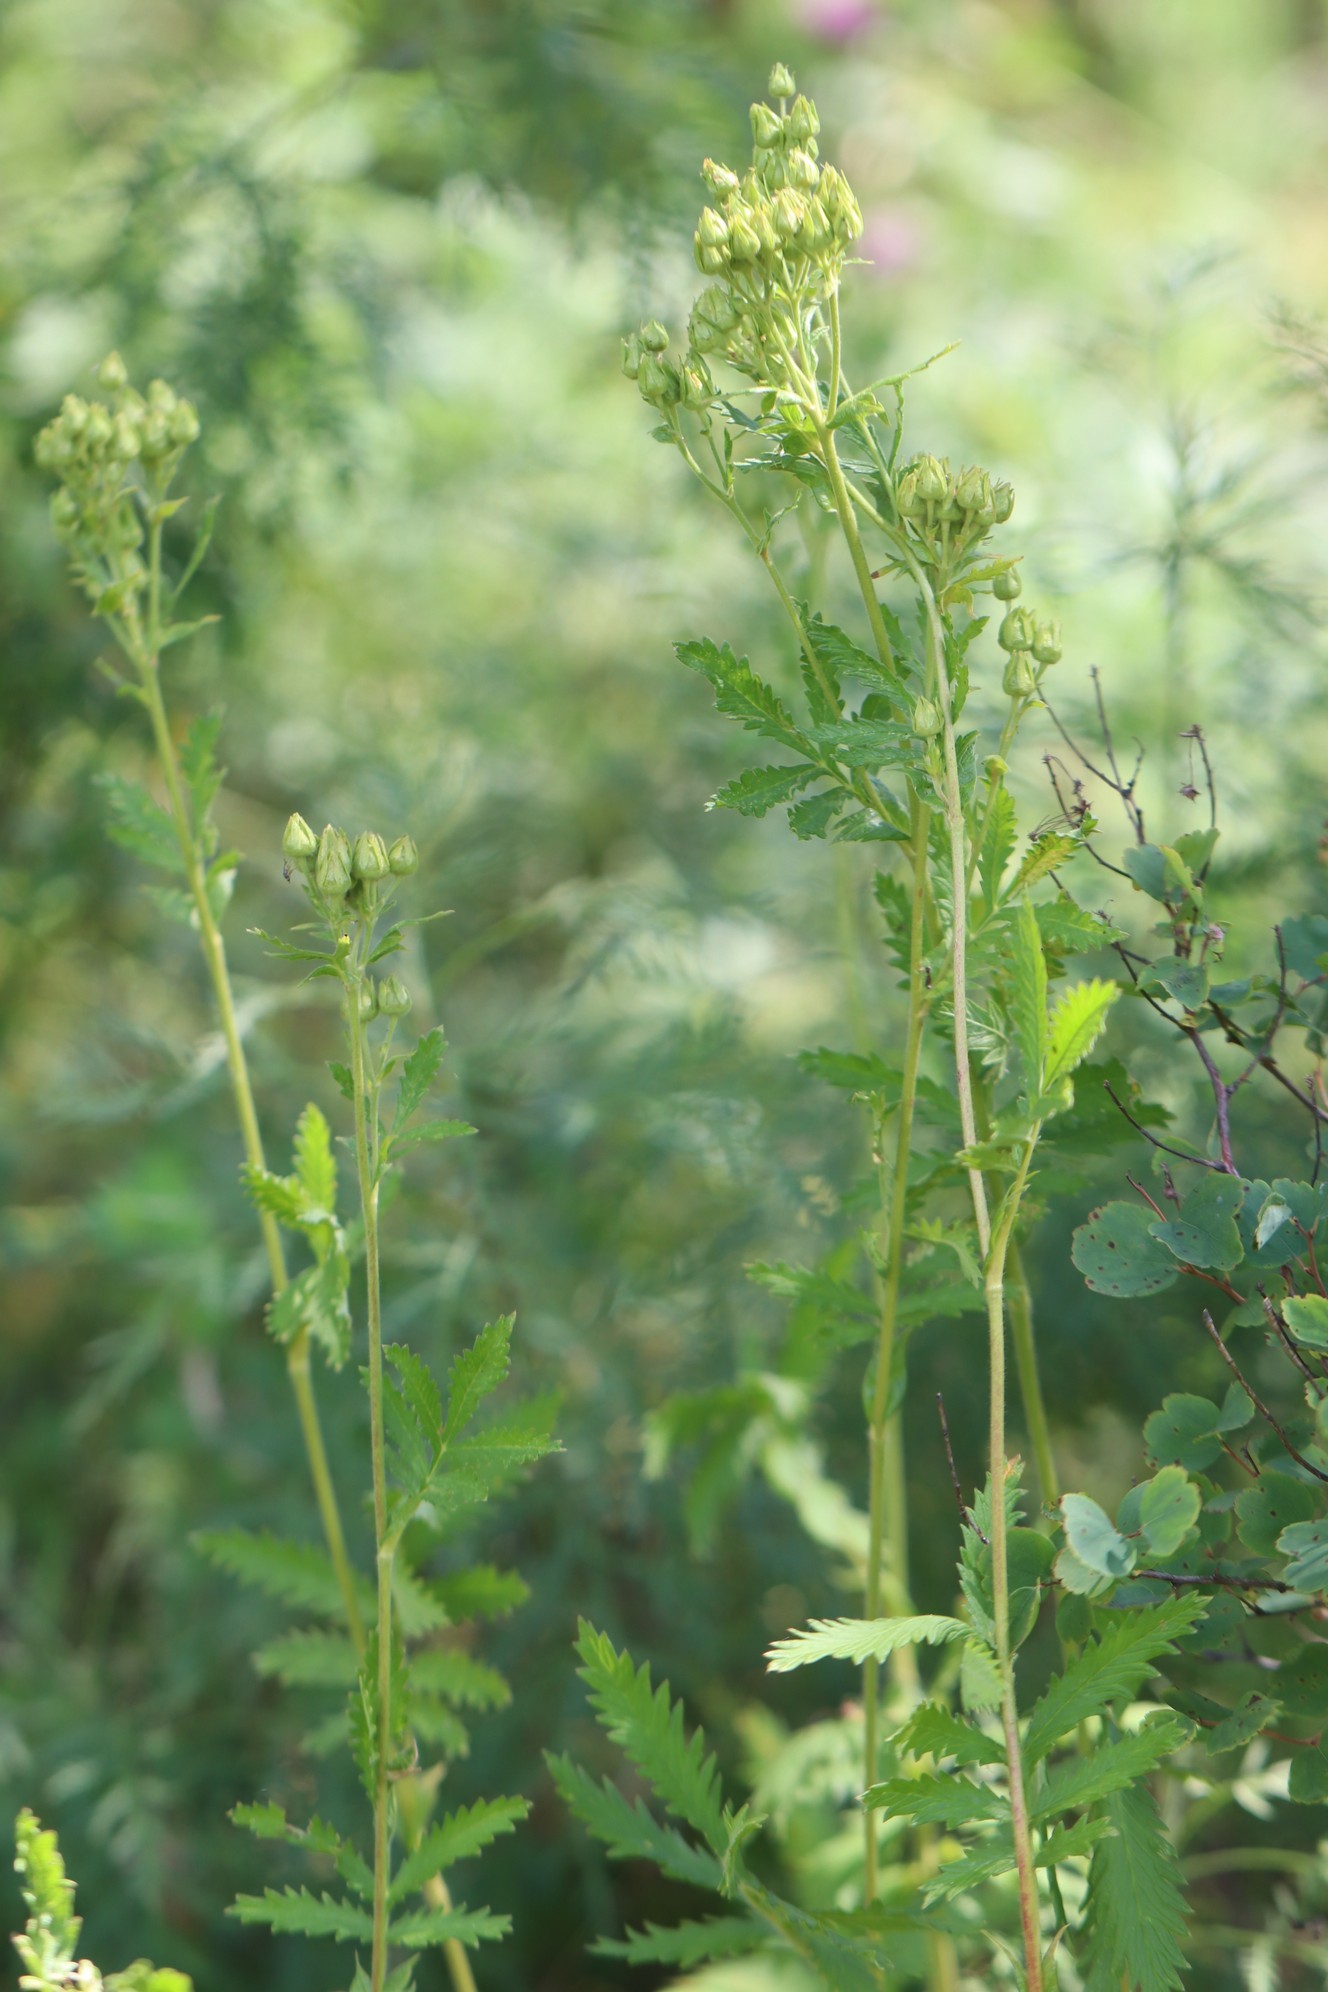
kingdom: Plantae
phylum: Tracheophyta
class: Magnoliopsida
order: Rosales
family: Rosaceae
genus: Potentilla
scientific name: Potentilla tanacetifolia
